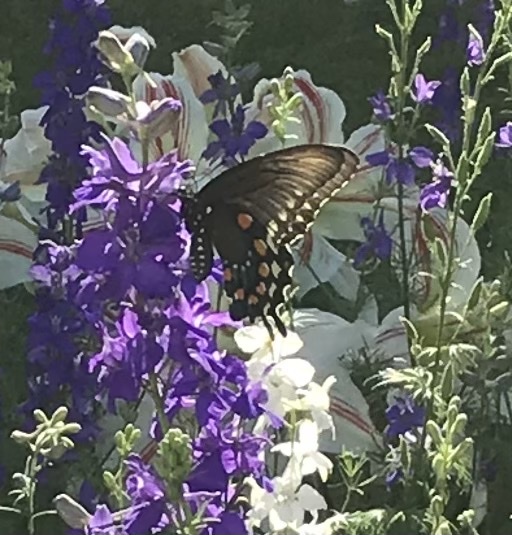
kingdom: Animalia
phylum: Arthropoda
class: Insecta
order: Lepidoptera
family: Papilionidae
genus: Battus
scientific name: Battus philenor
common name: Pipevine swallowtail
